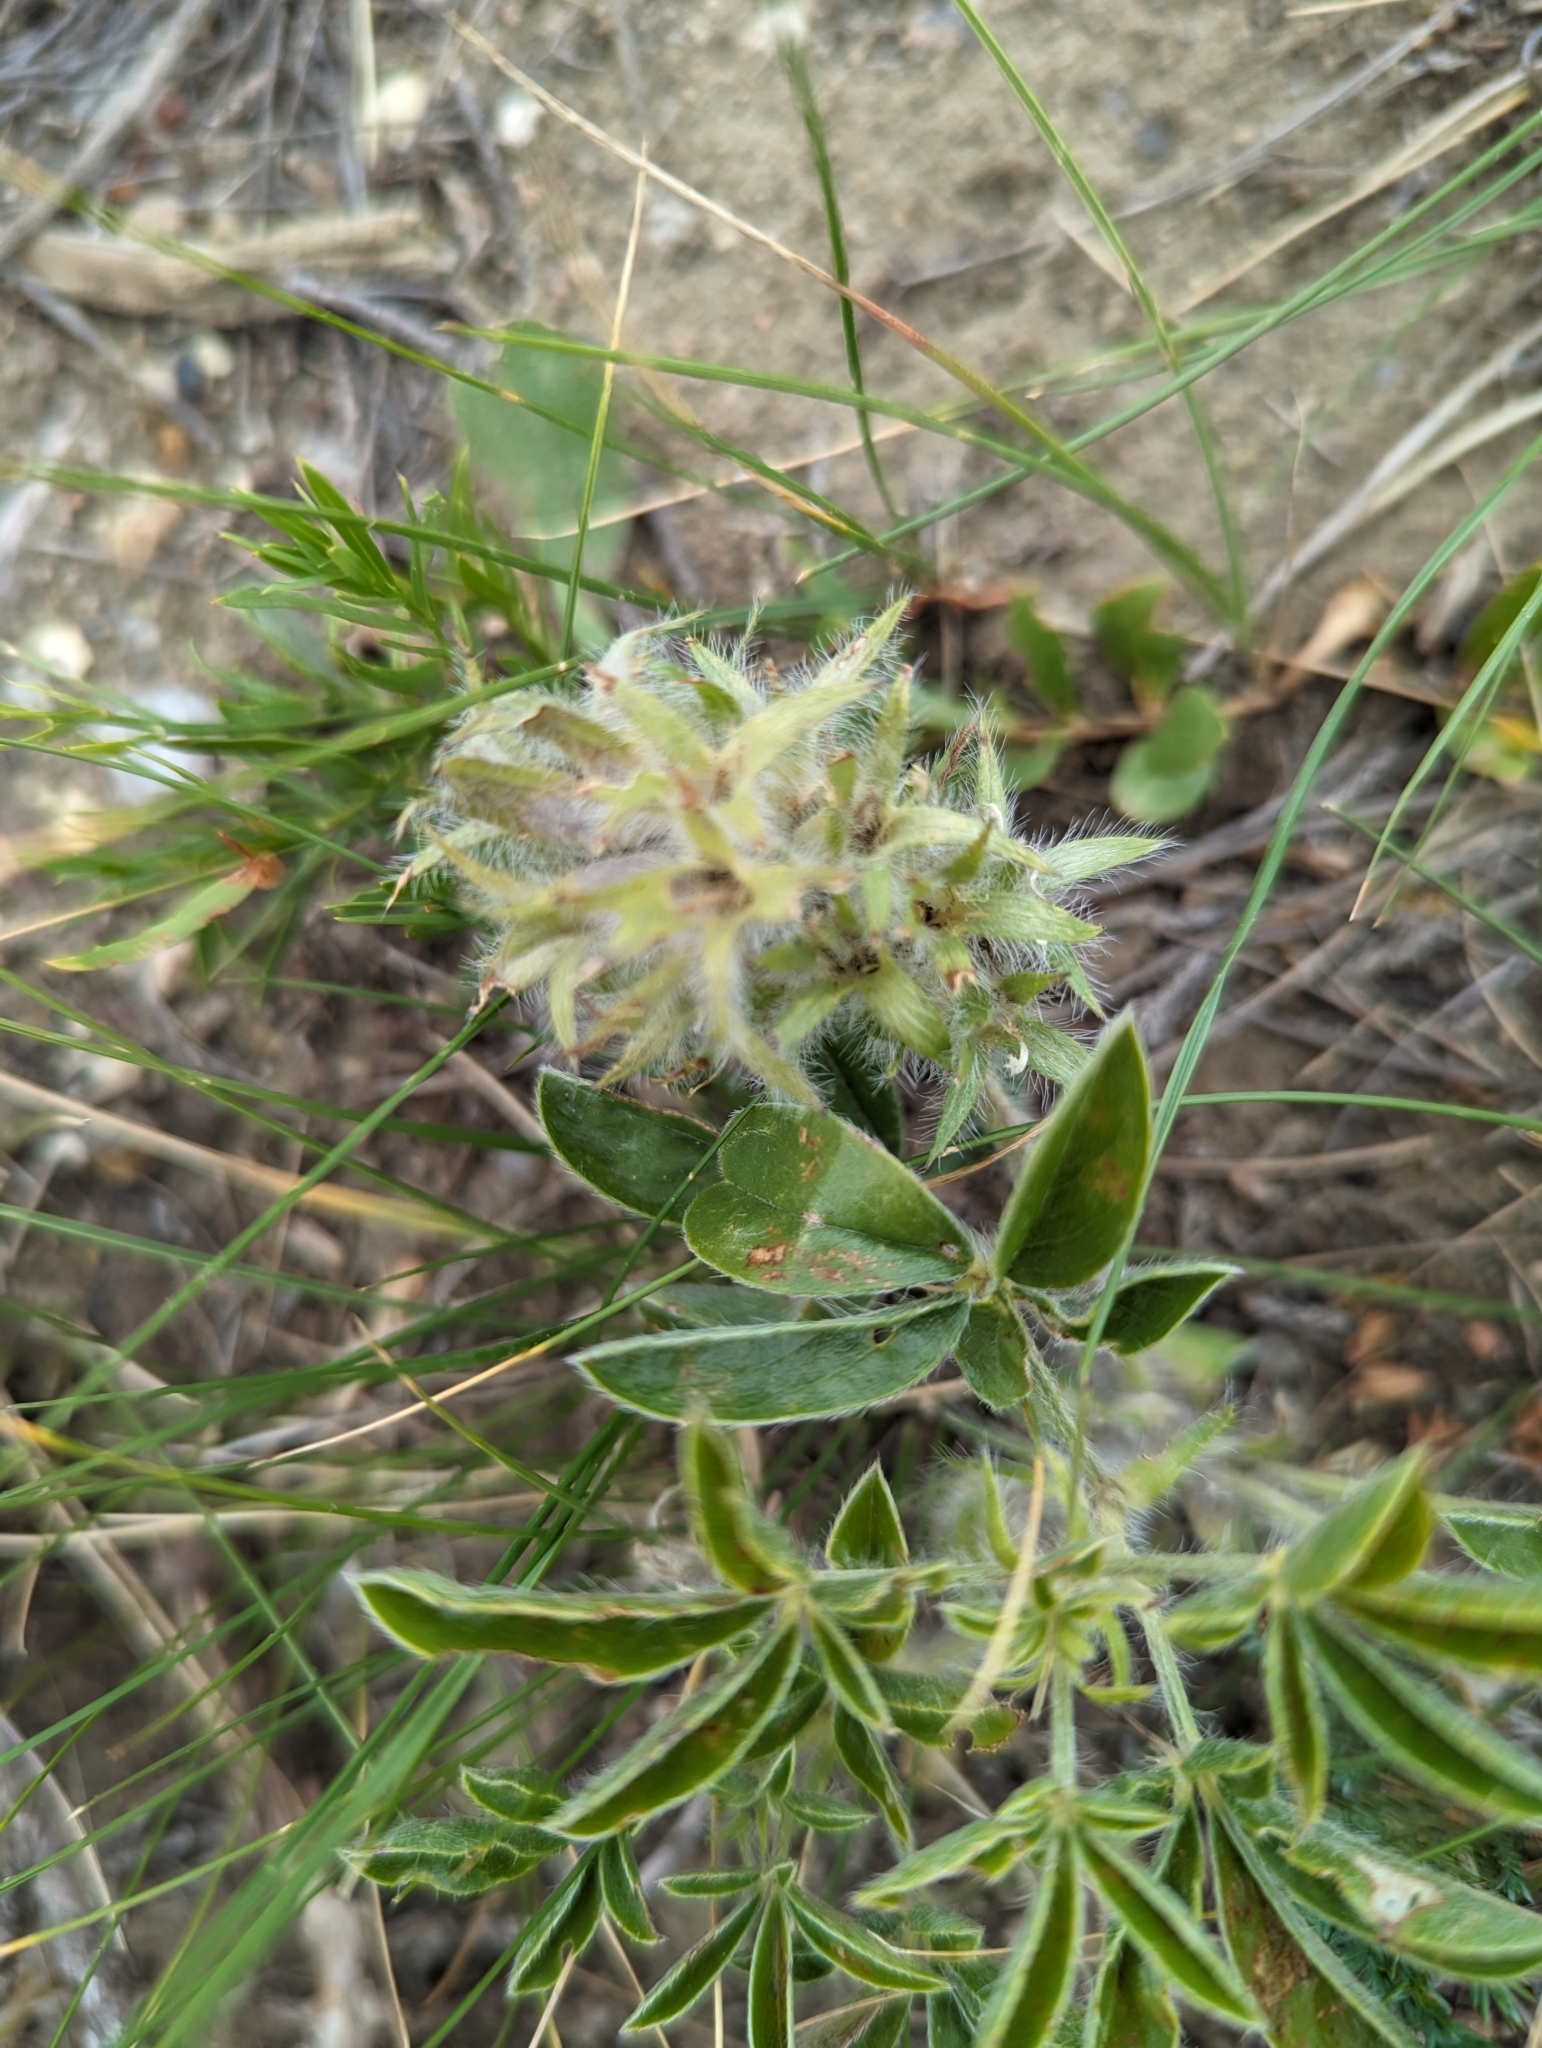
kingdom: Plantae
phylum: Tracheophyta
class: Magnoliopsida
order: Fabales
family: Fabaceae
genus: Pediomelum
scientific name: Pediomelum esculentum
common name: Indian-turnip
